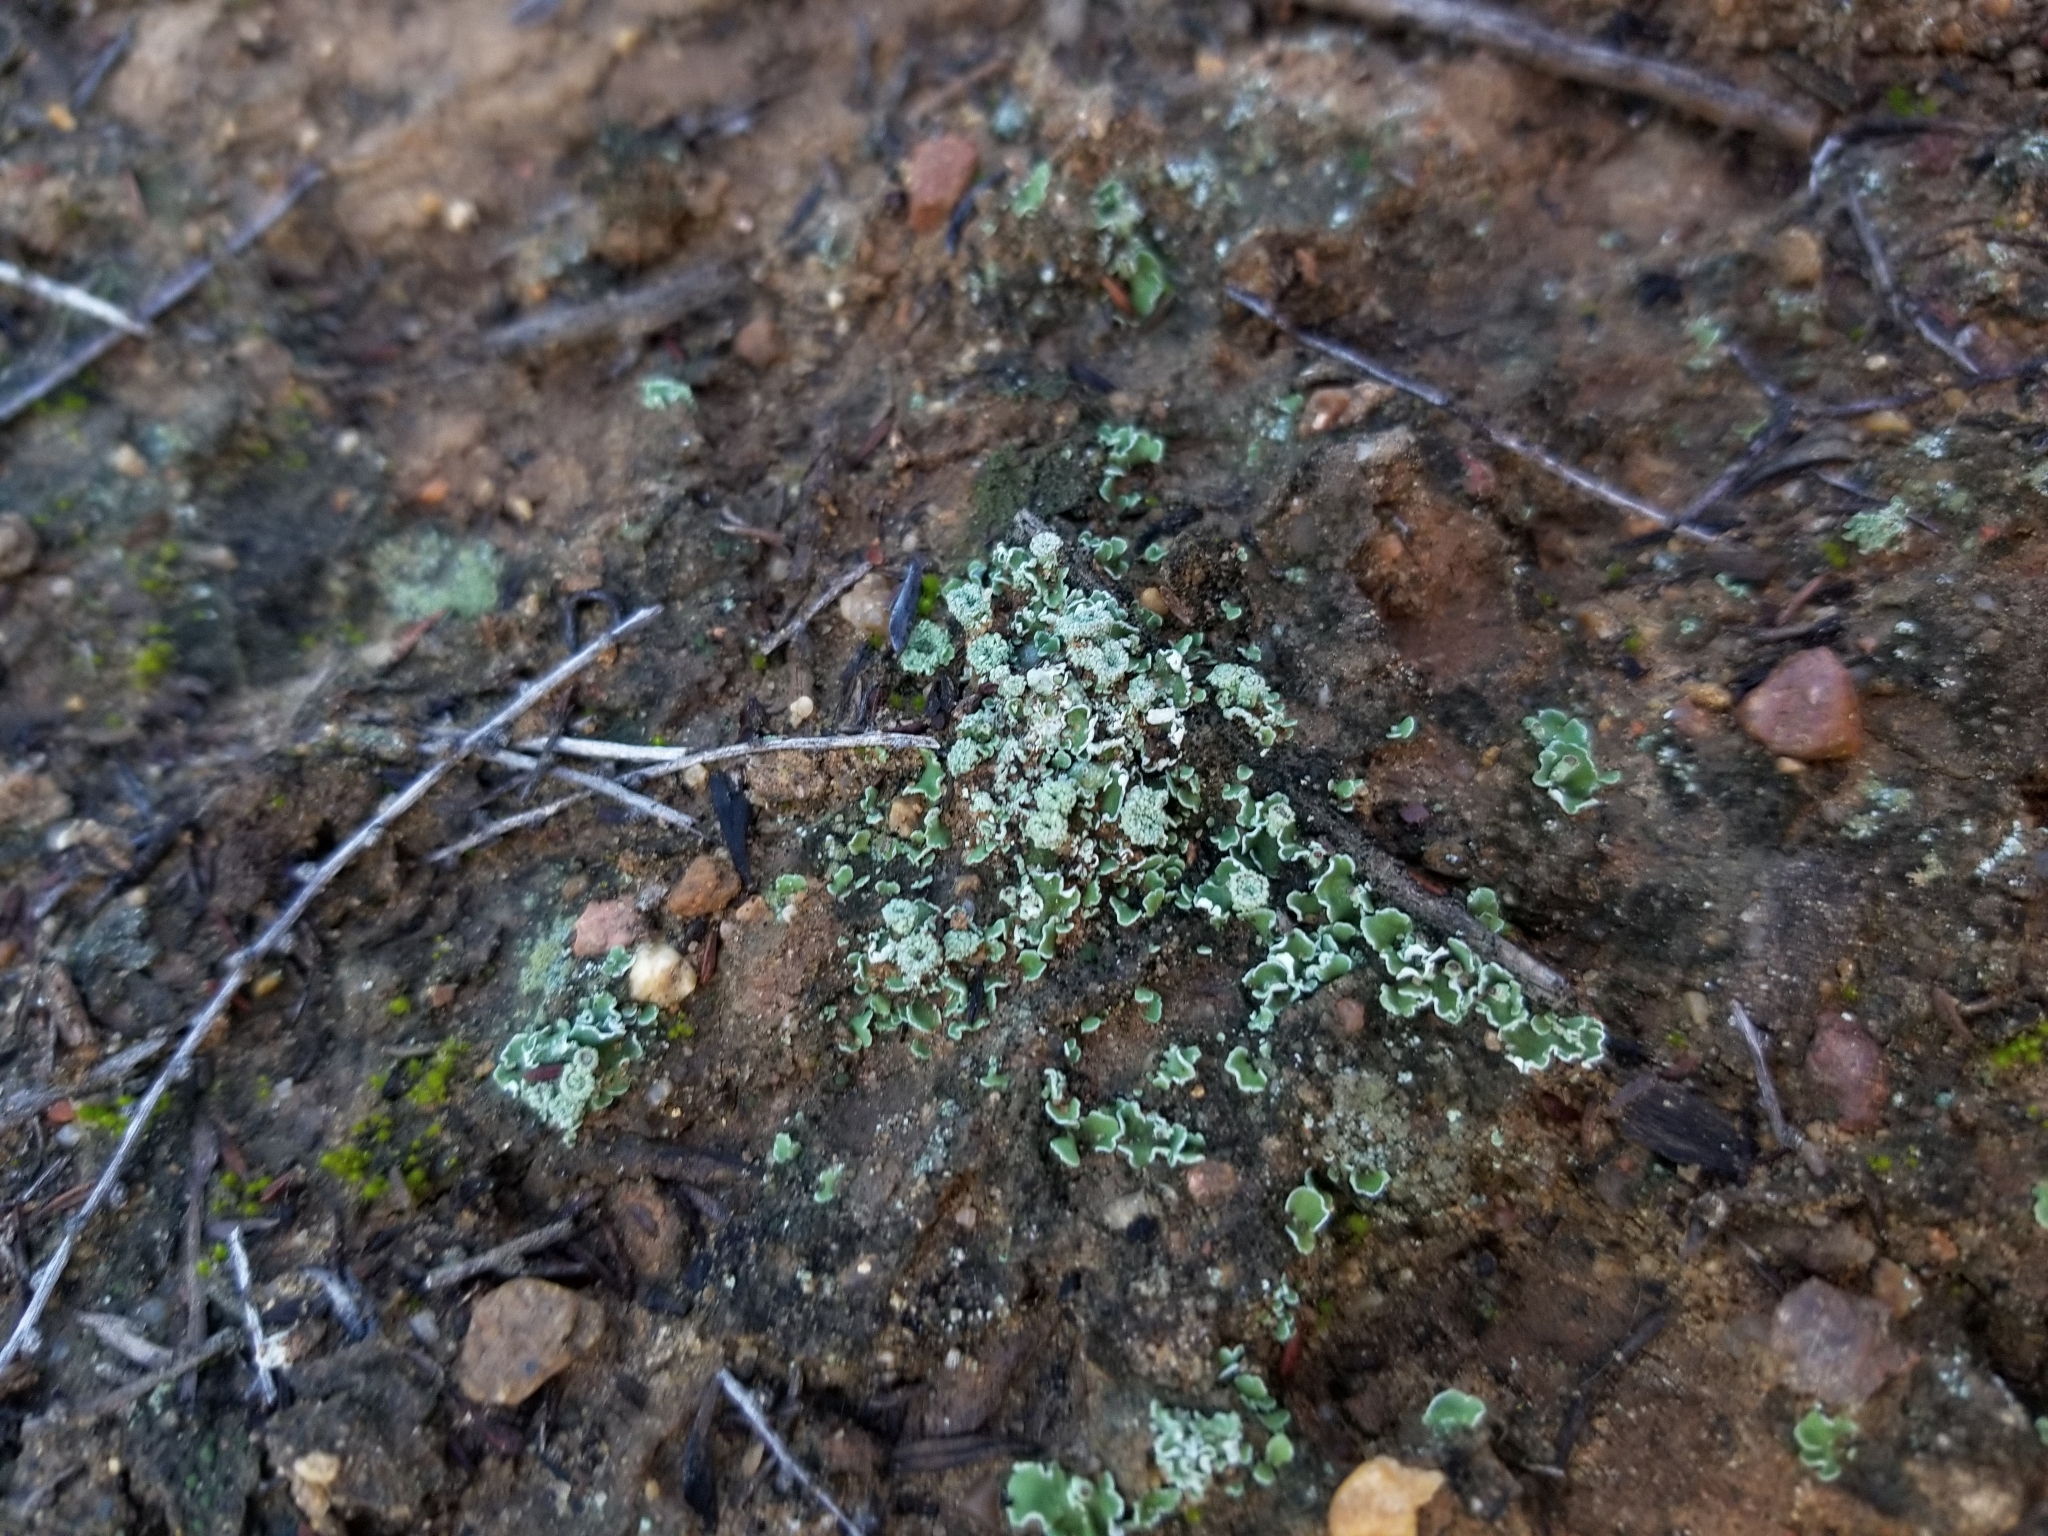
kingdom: Fungi
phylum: Ascomycota
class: Lecanoromycetes
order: Lecanorales
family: Cladoniaceae
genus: Cladonia
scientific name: Cladonia chlorophaea
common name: Mealy pixie cup
